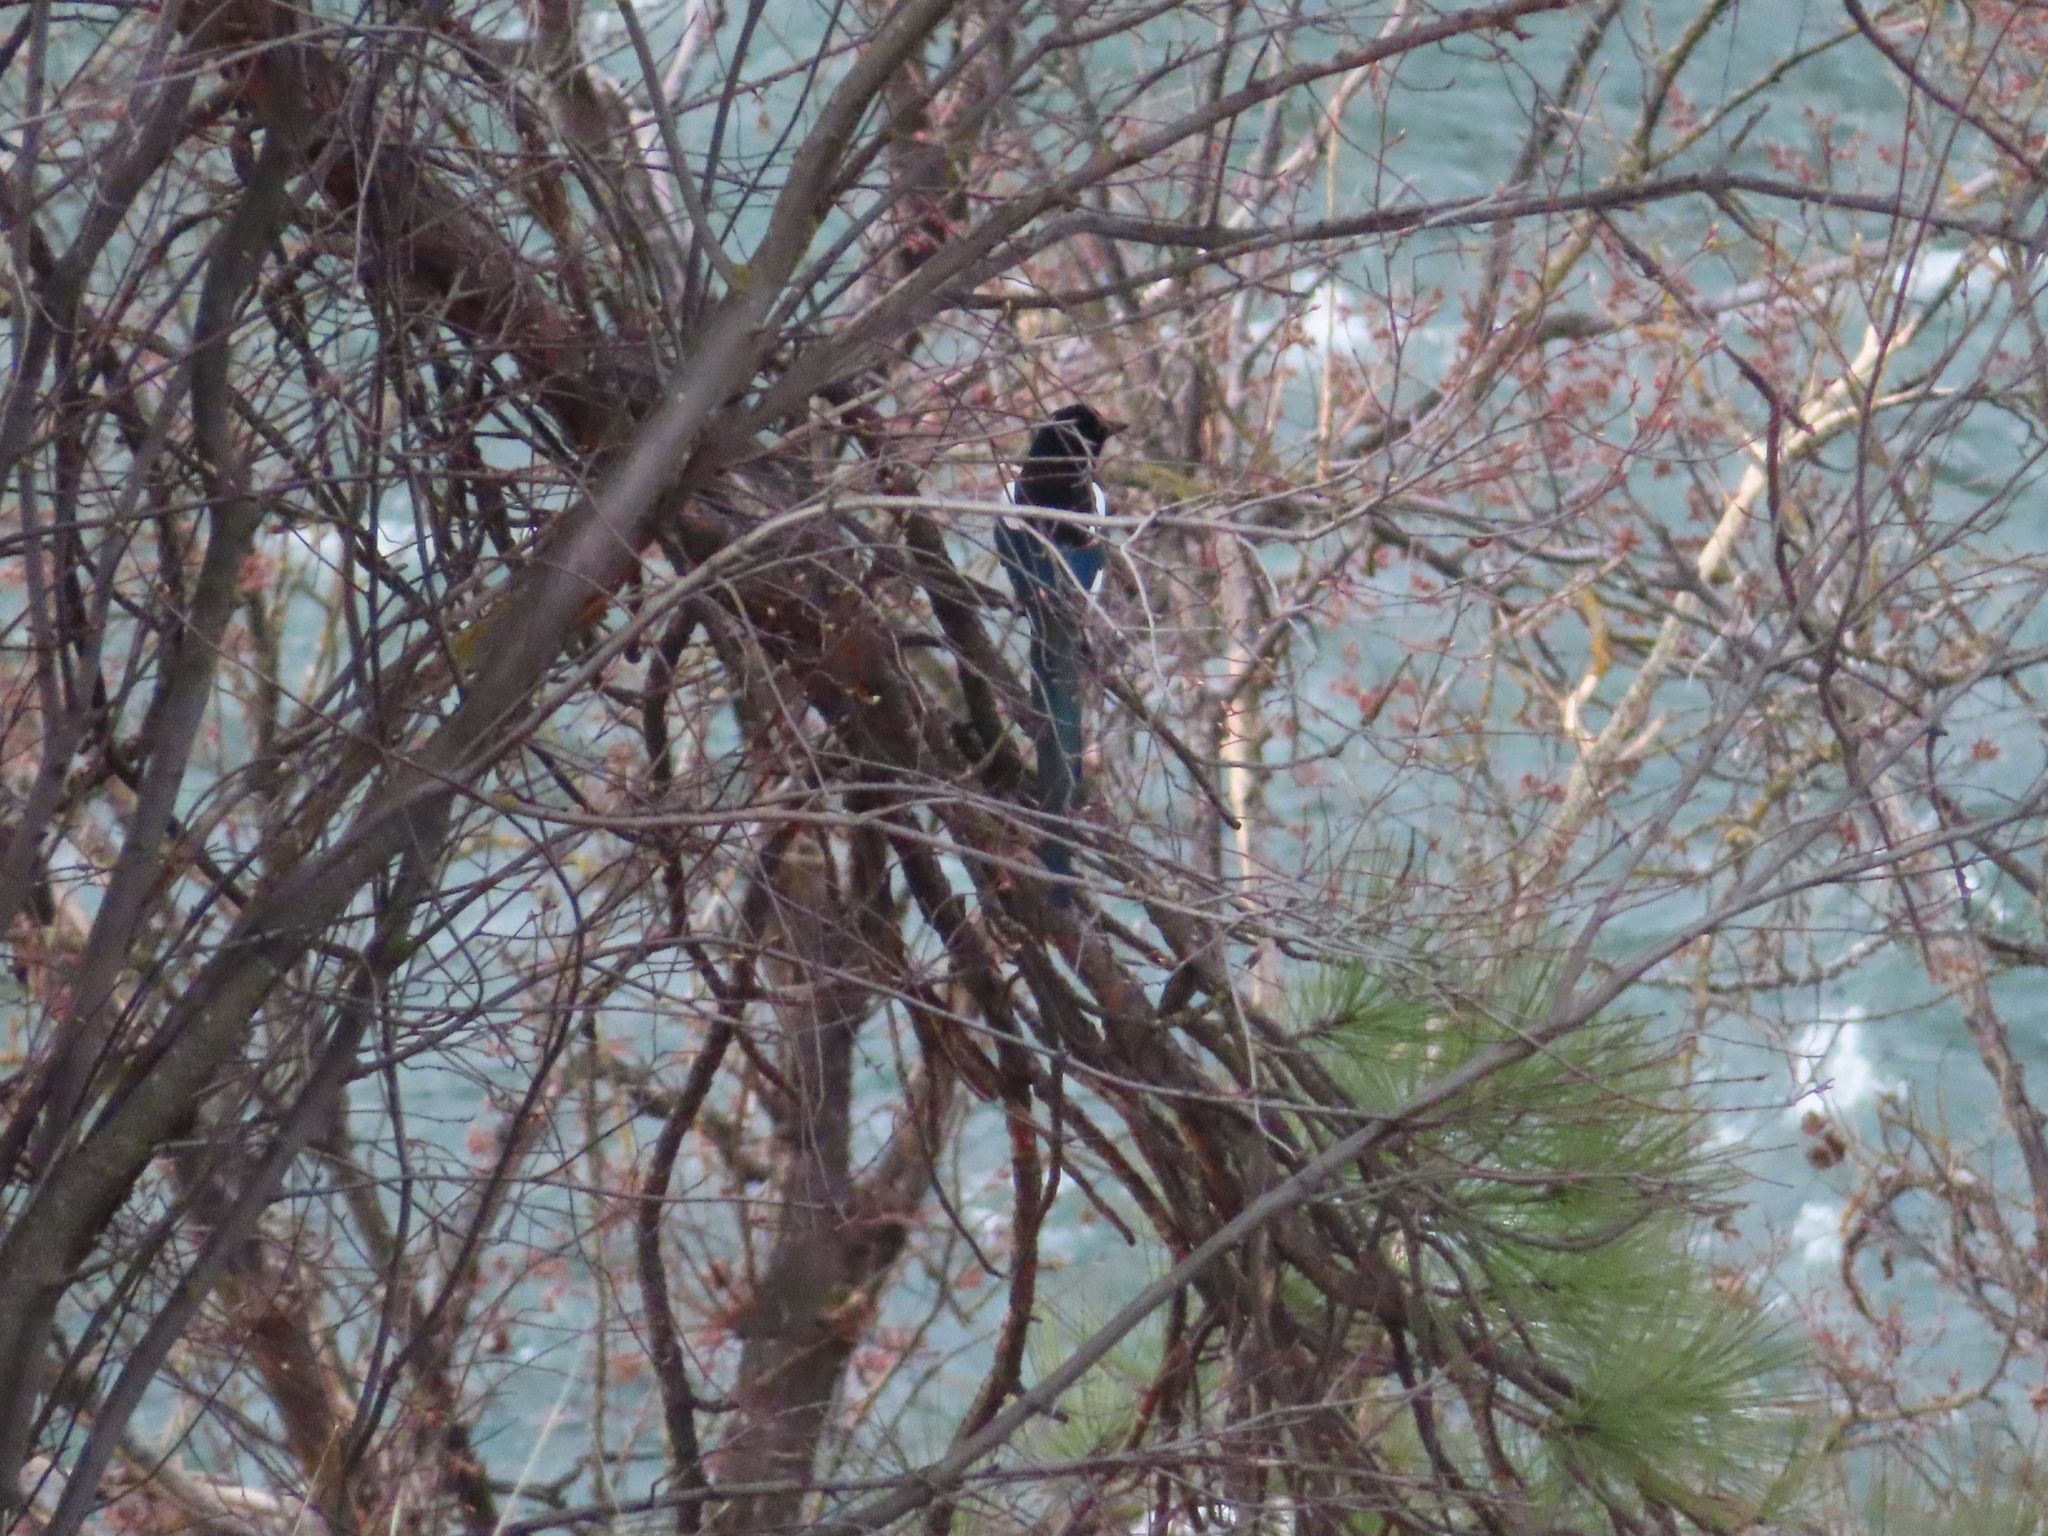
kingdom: Animalia
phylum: Chordata
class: Aves
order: Passeriformes
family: Corvidae
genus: Pica
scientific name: Pica hudsonia
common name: Black-billed magpie
